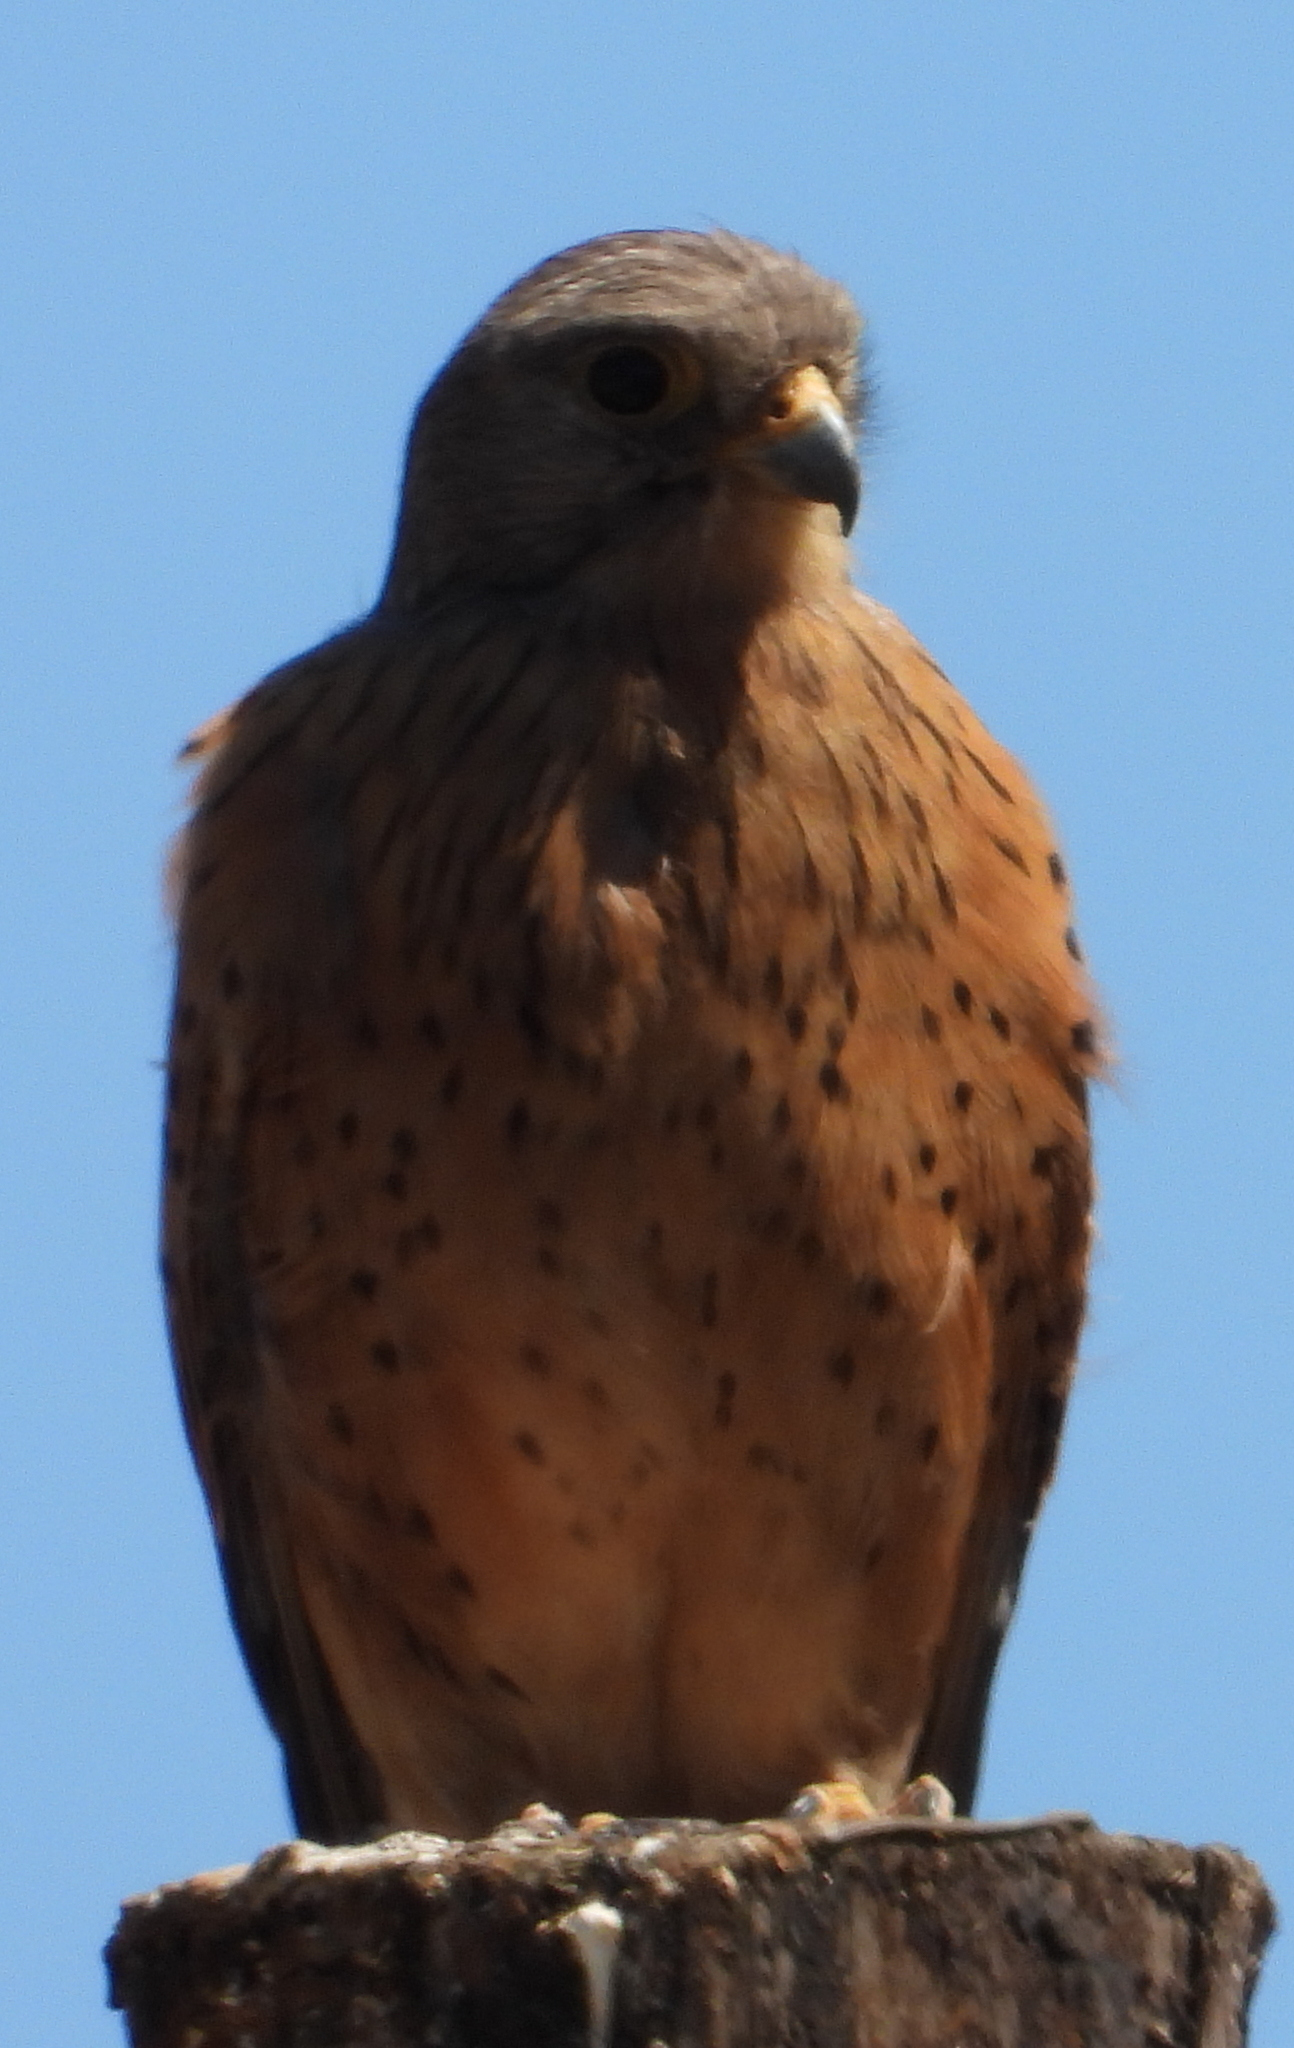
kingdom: Animalia
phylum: Chordata
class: Aves
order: Falconiformes
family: Falconidae
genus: Falco
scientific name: Falco rupicolus
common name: Rock kestrel
